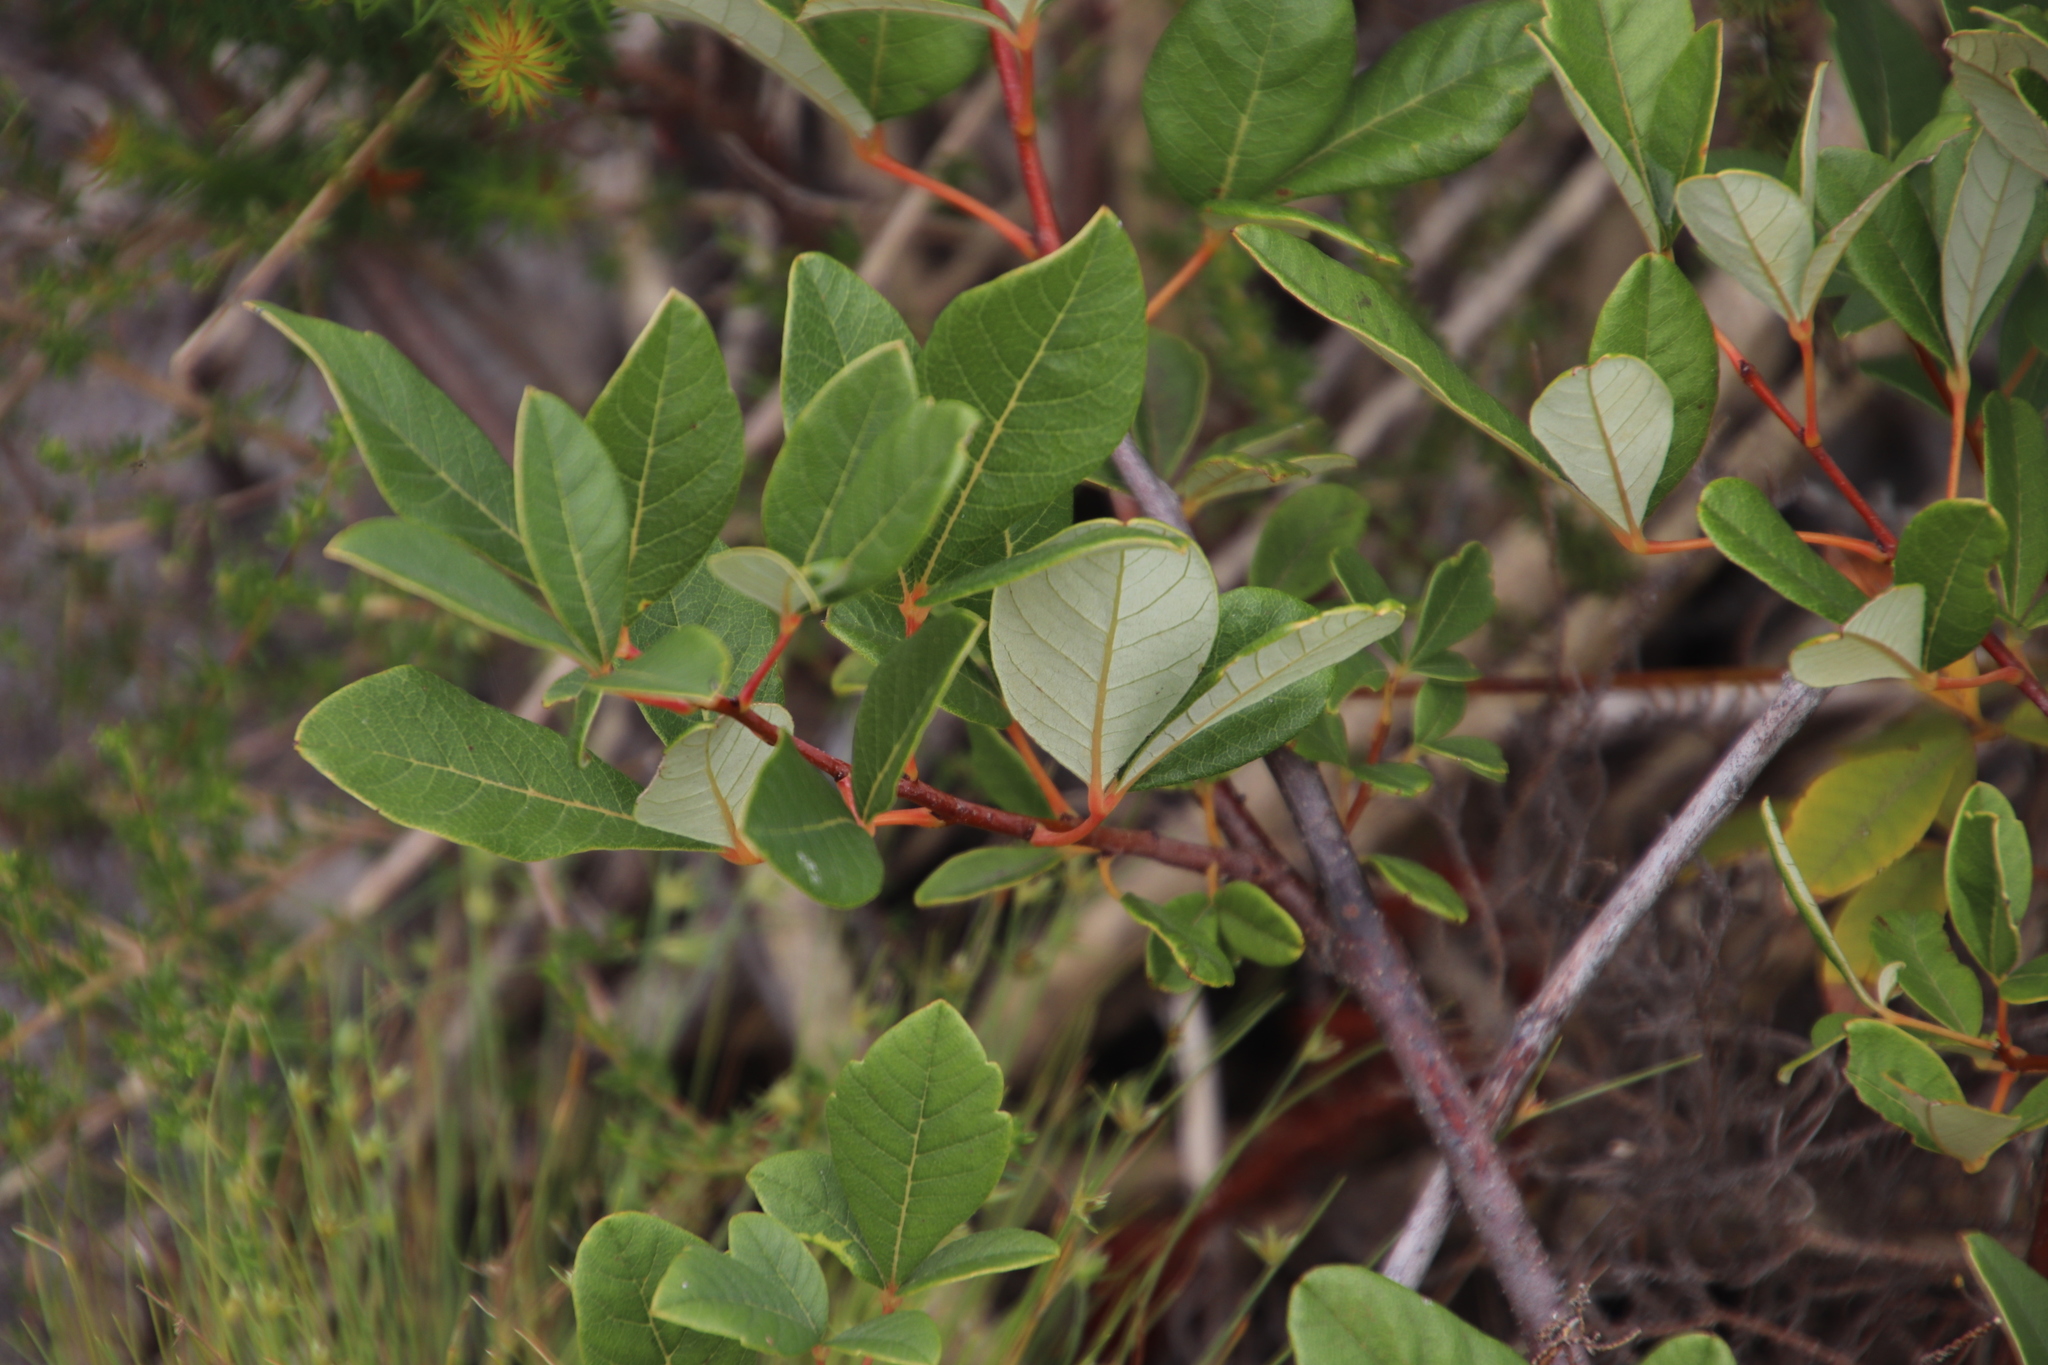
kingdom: Plantae
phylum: Tracheophyta
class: Magnoliopsida
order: Sapindales
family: Anacardiaceae
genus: Searsia
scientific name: Searsia tomentosa
